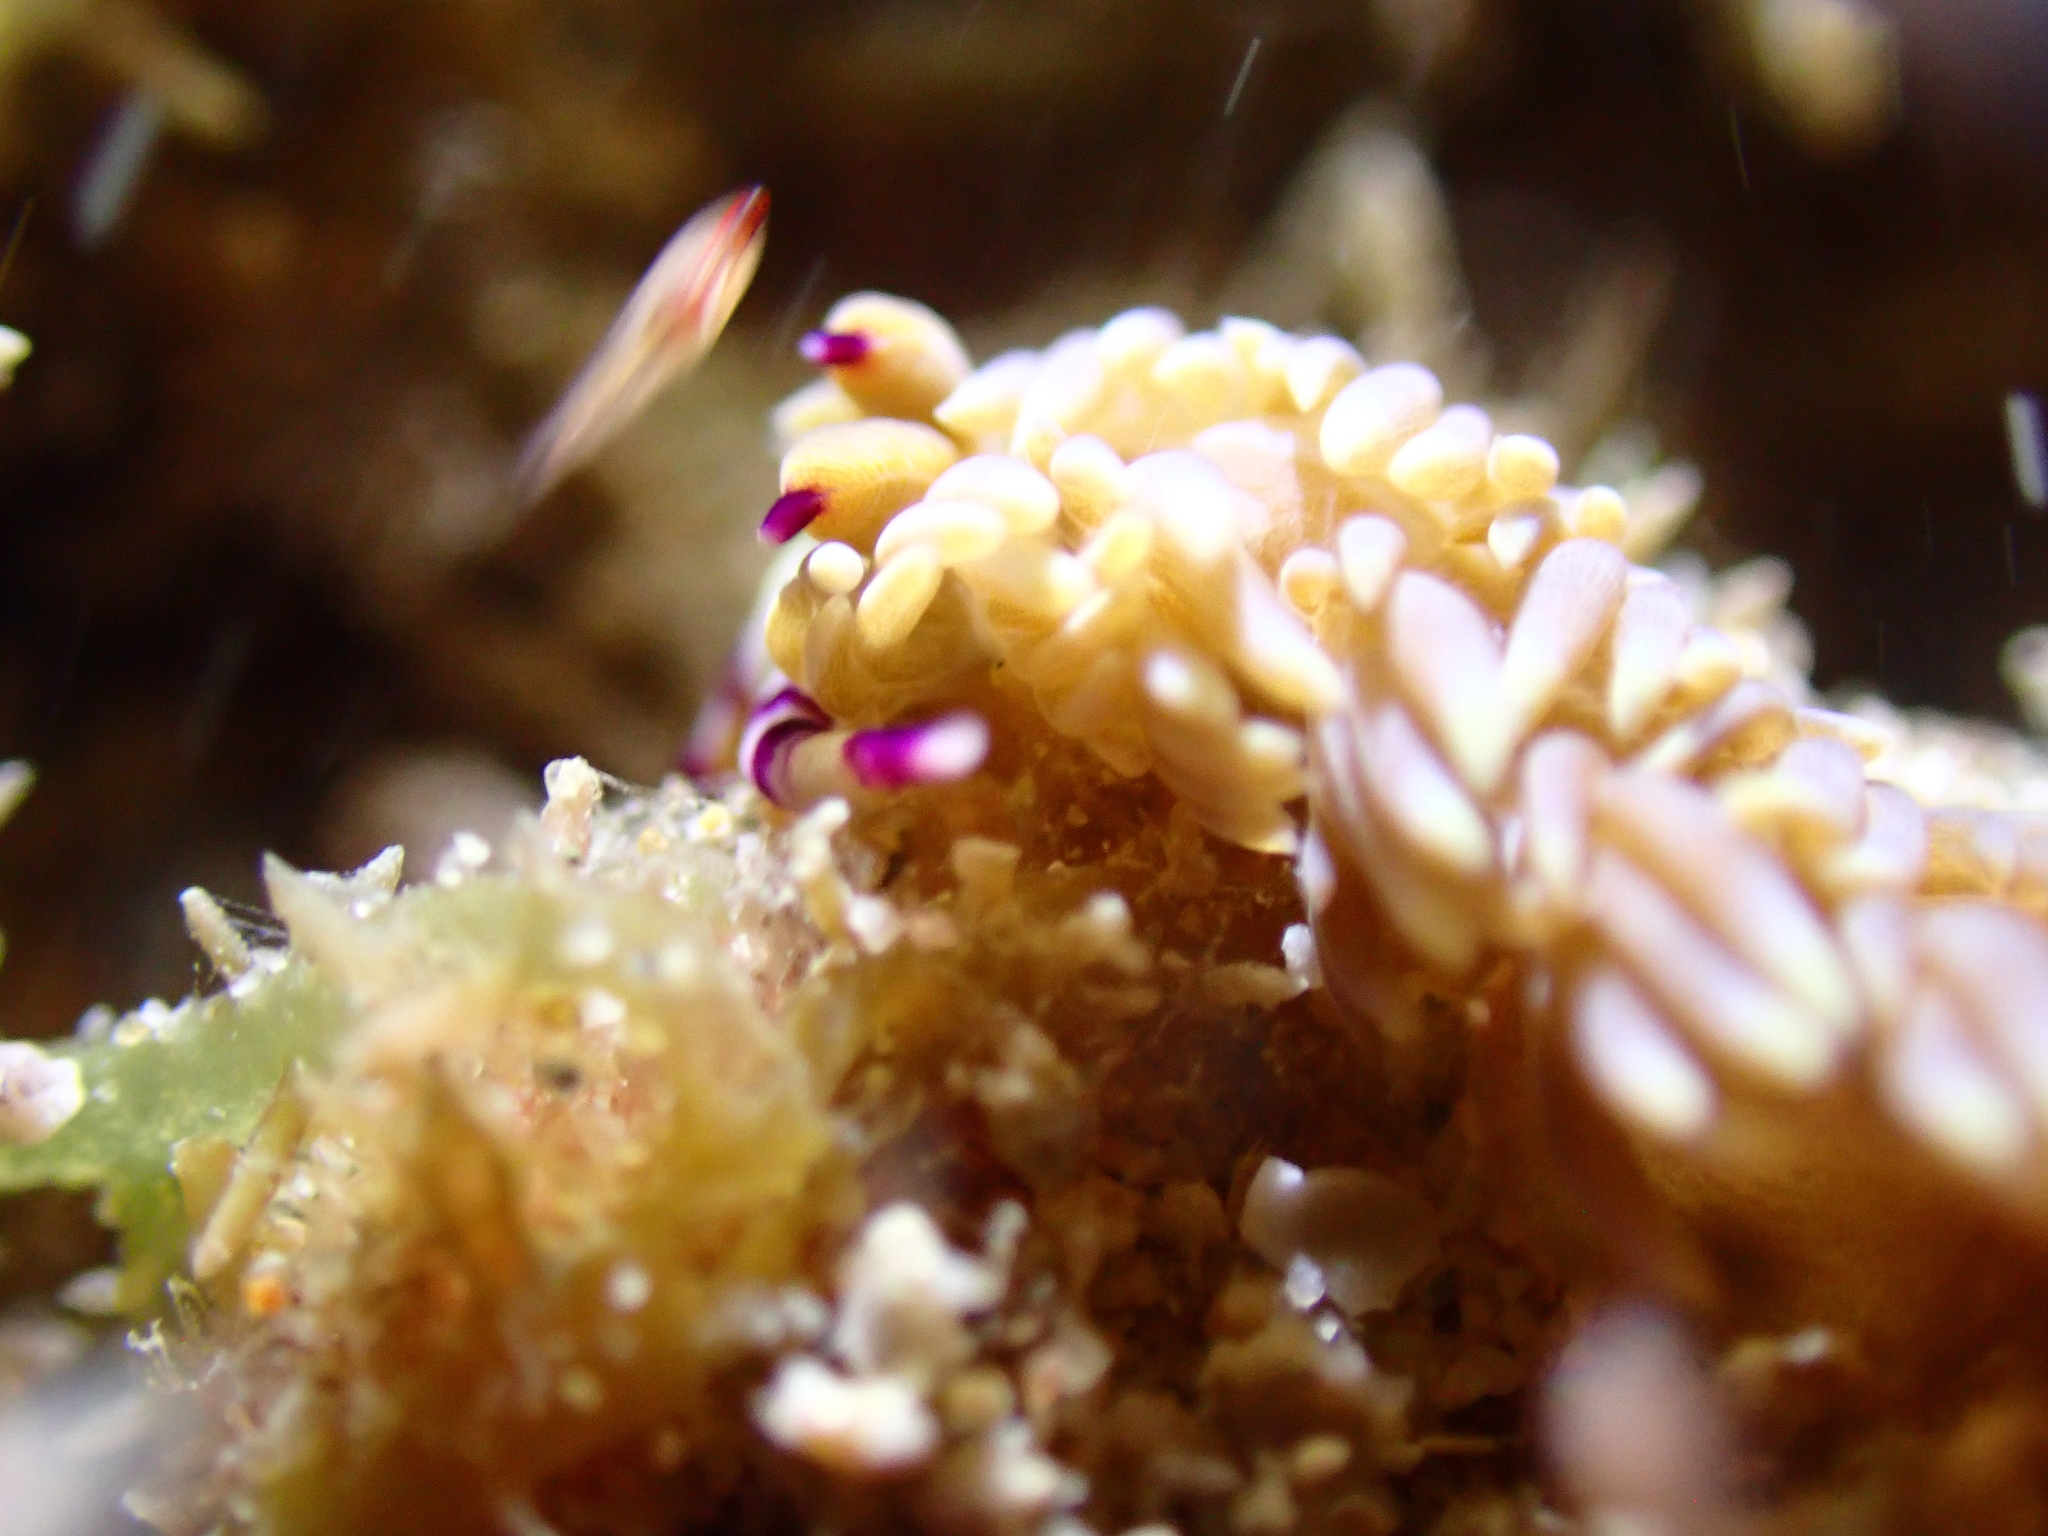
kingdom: Animalia
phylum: Mollusca
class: Gastropoda
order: Nudibranchia
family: Facelinidae
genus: Pteraeolidia
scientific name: Pteraeolidia semperi
